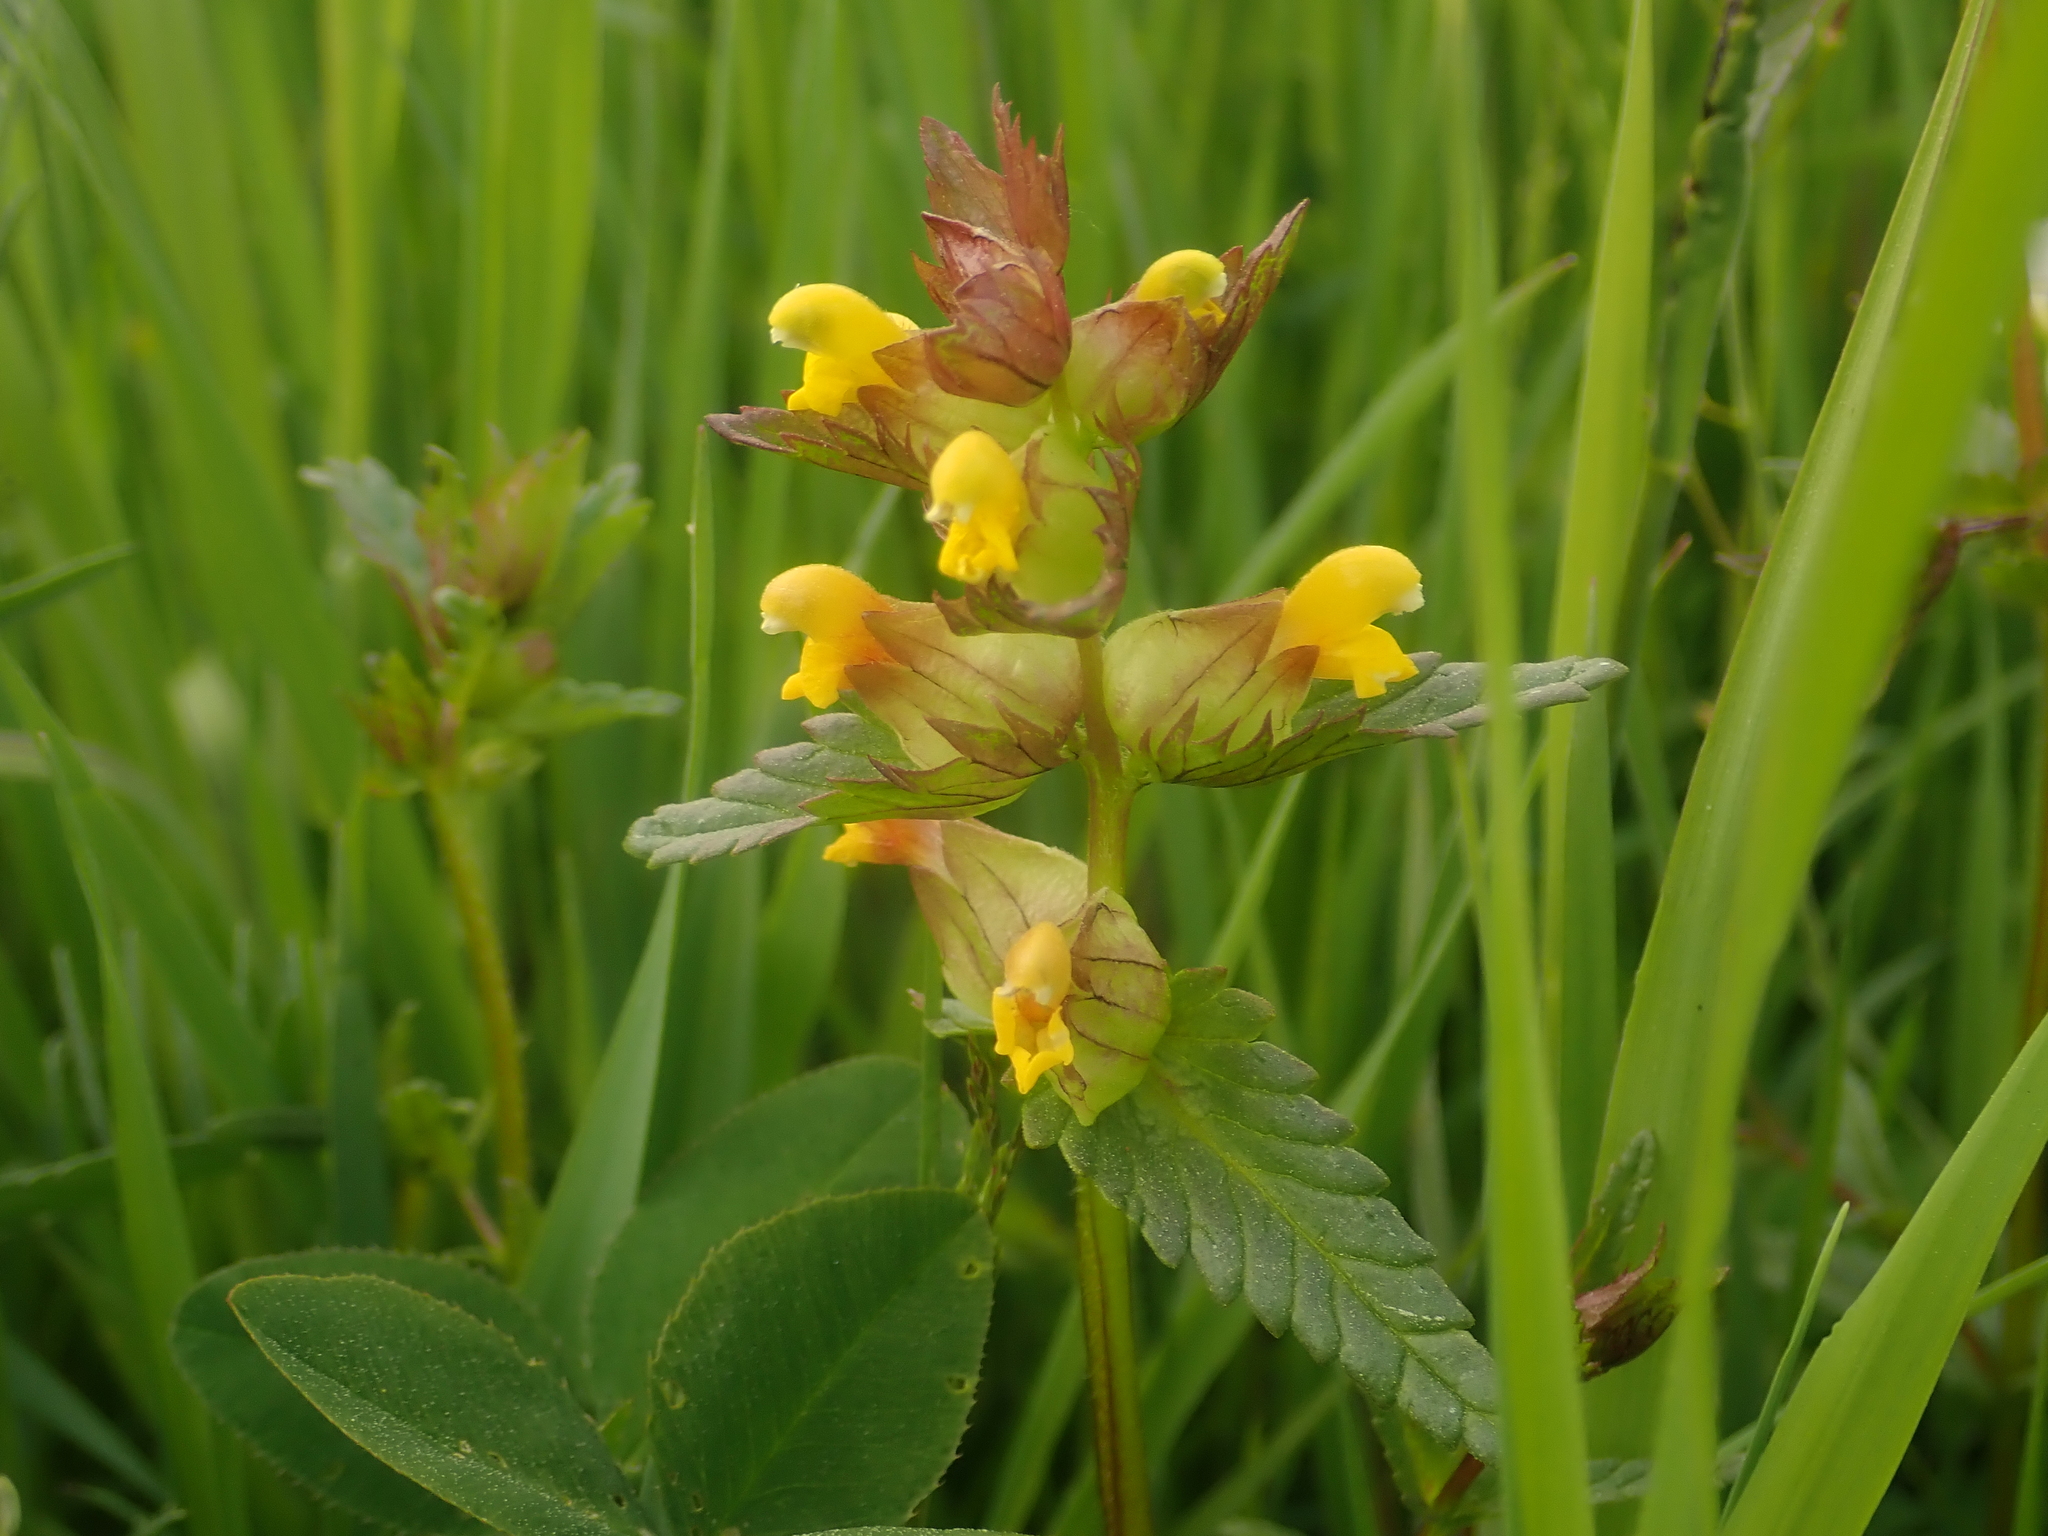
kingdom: Plantae
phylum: Tracheophyta
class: Magnoliopsida
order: Lamiales
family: Orobanchaceae
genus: Rhinanthus
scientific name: Rhinanthus minor
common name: Yellow-rattle
